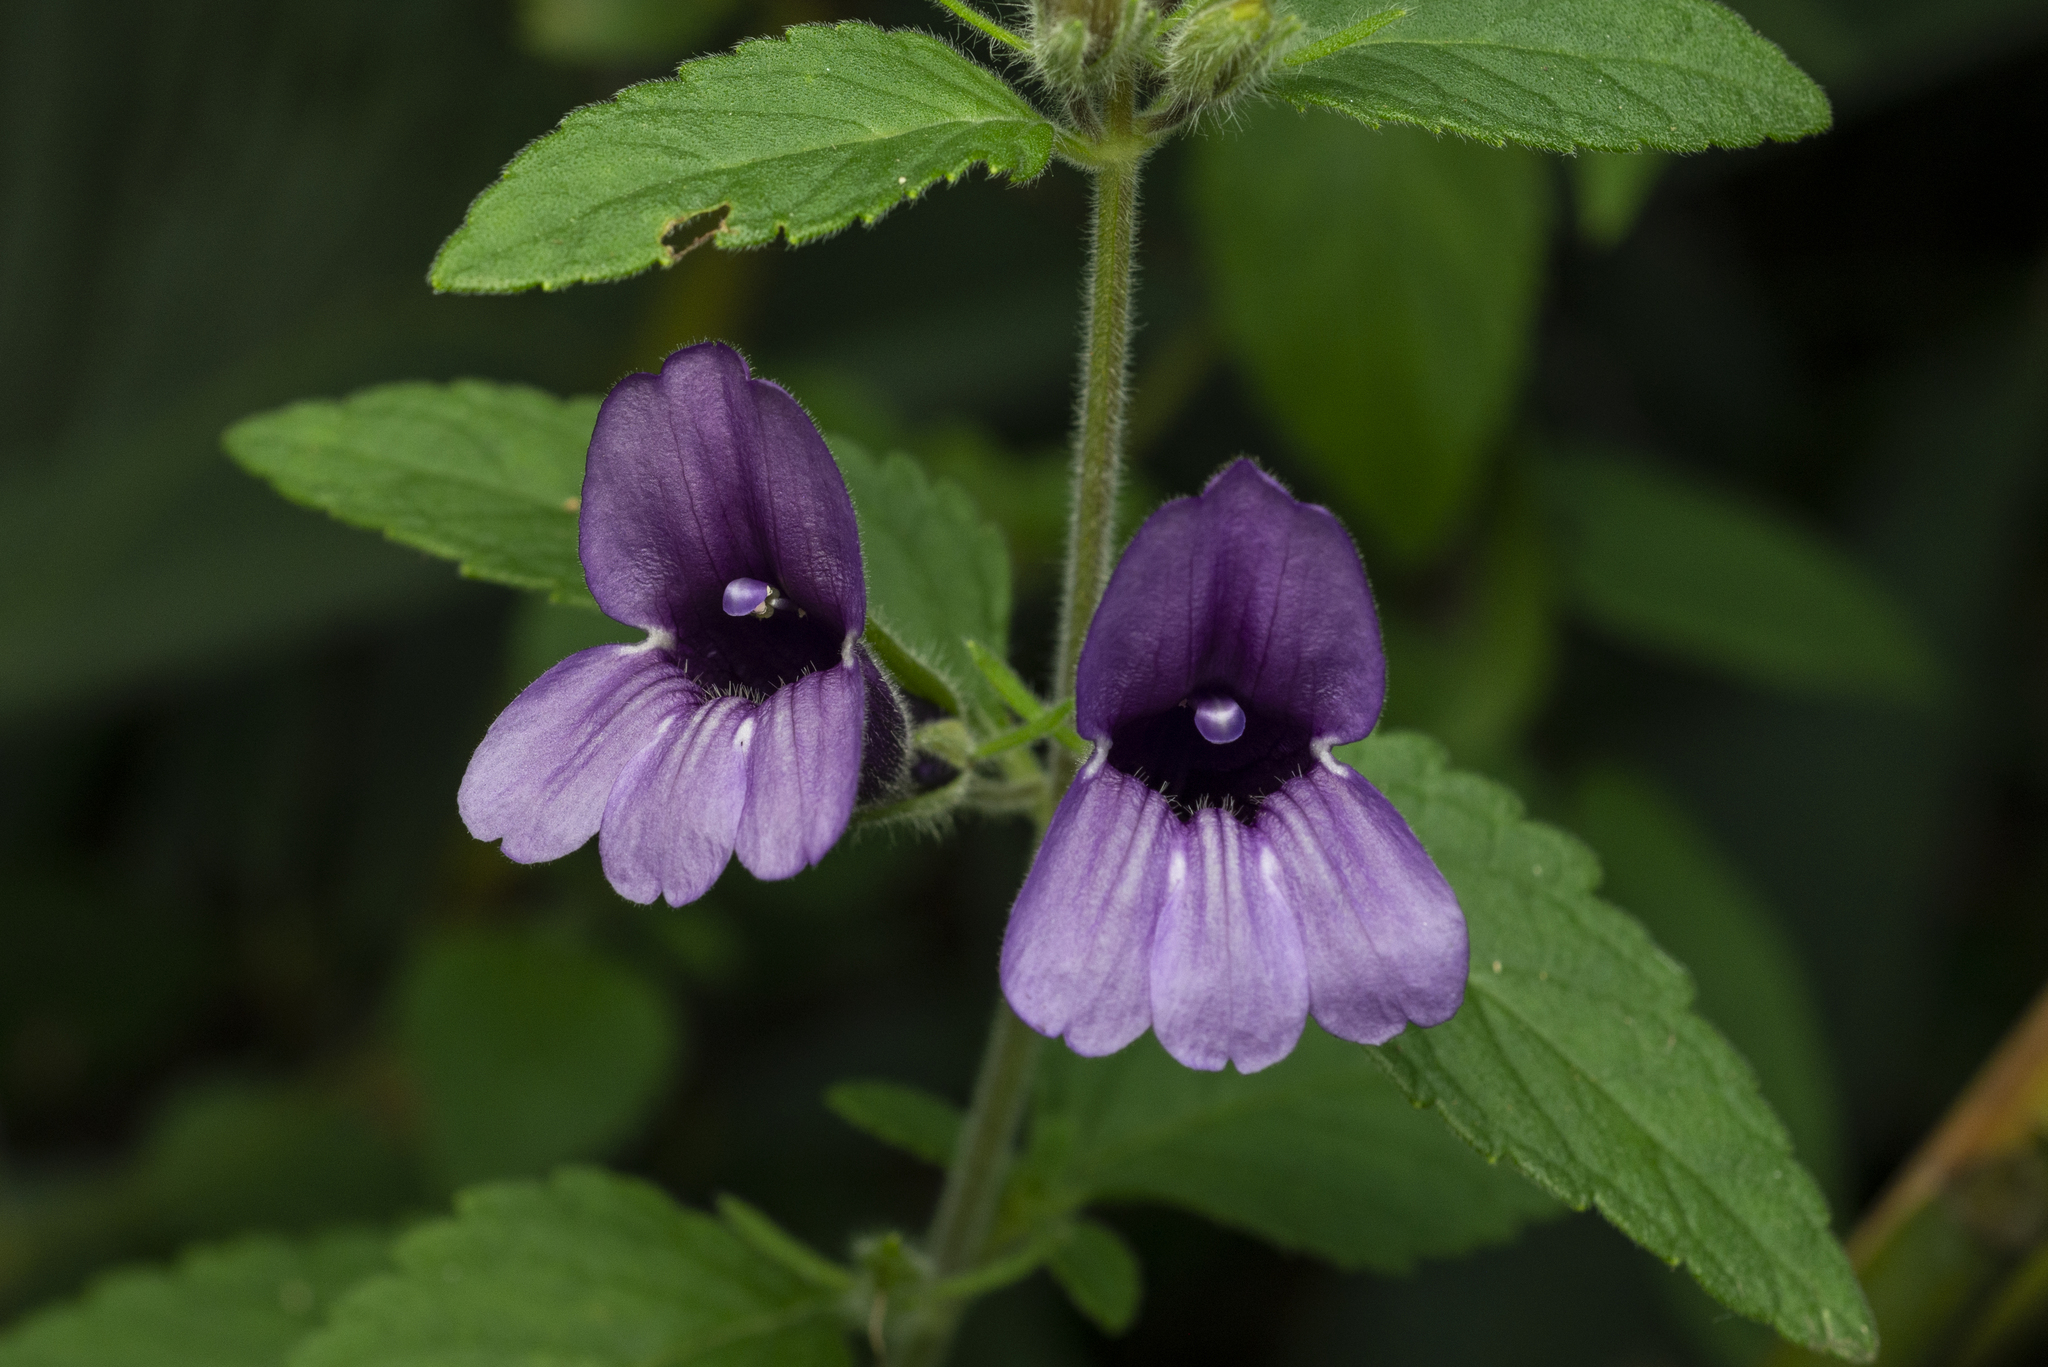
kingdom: Plantae
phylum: Tracheophyta
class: Magnoliopsida
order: Lamiales
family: Plantaginaceae
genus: Adenosma
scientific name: Adenosma glutinosa
